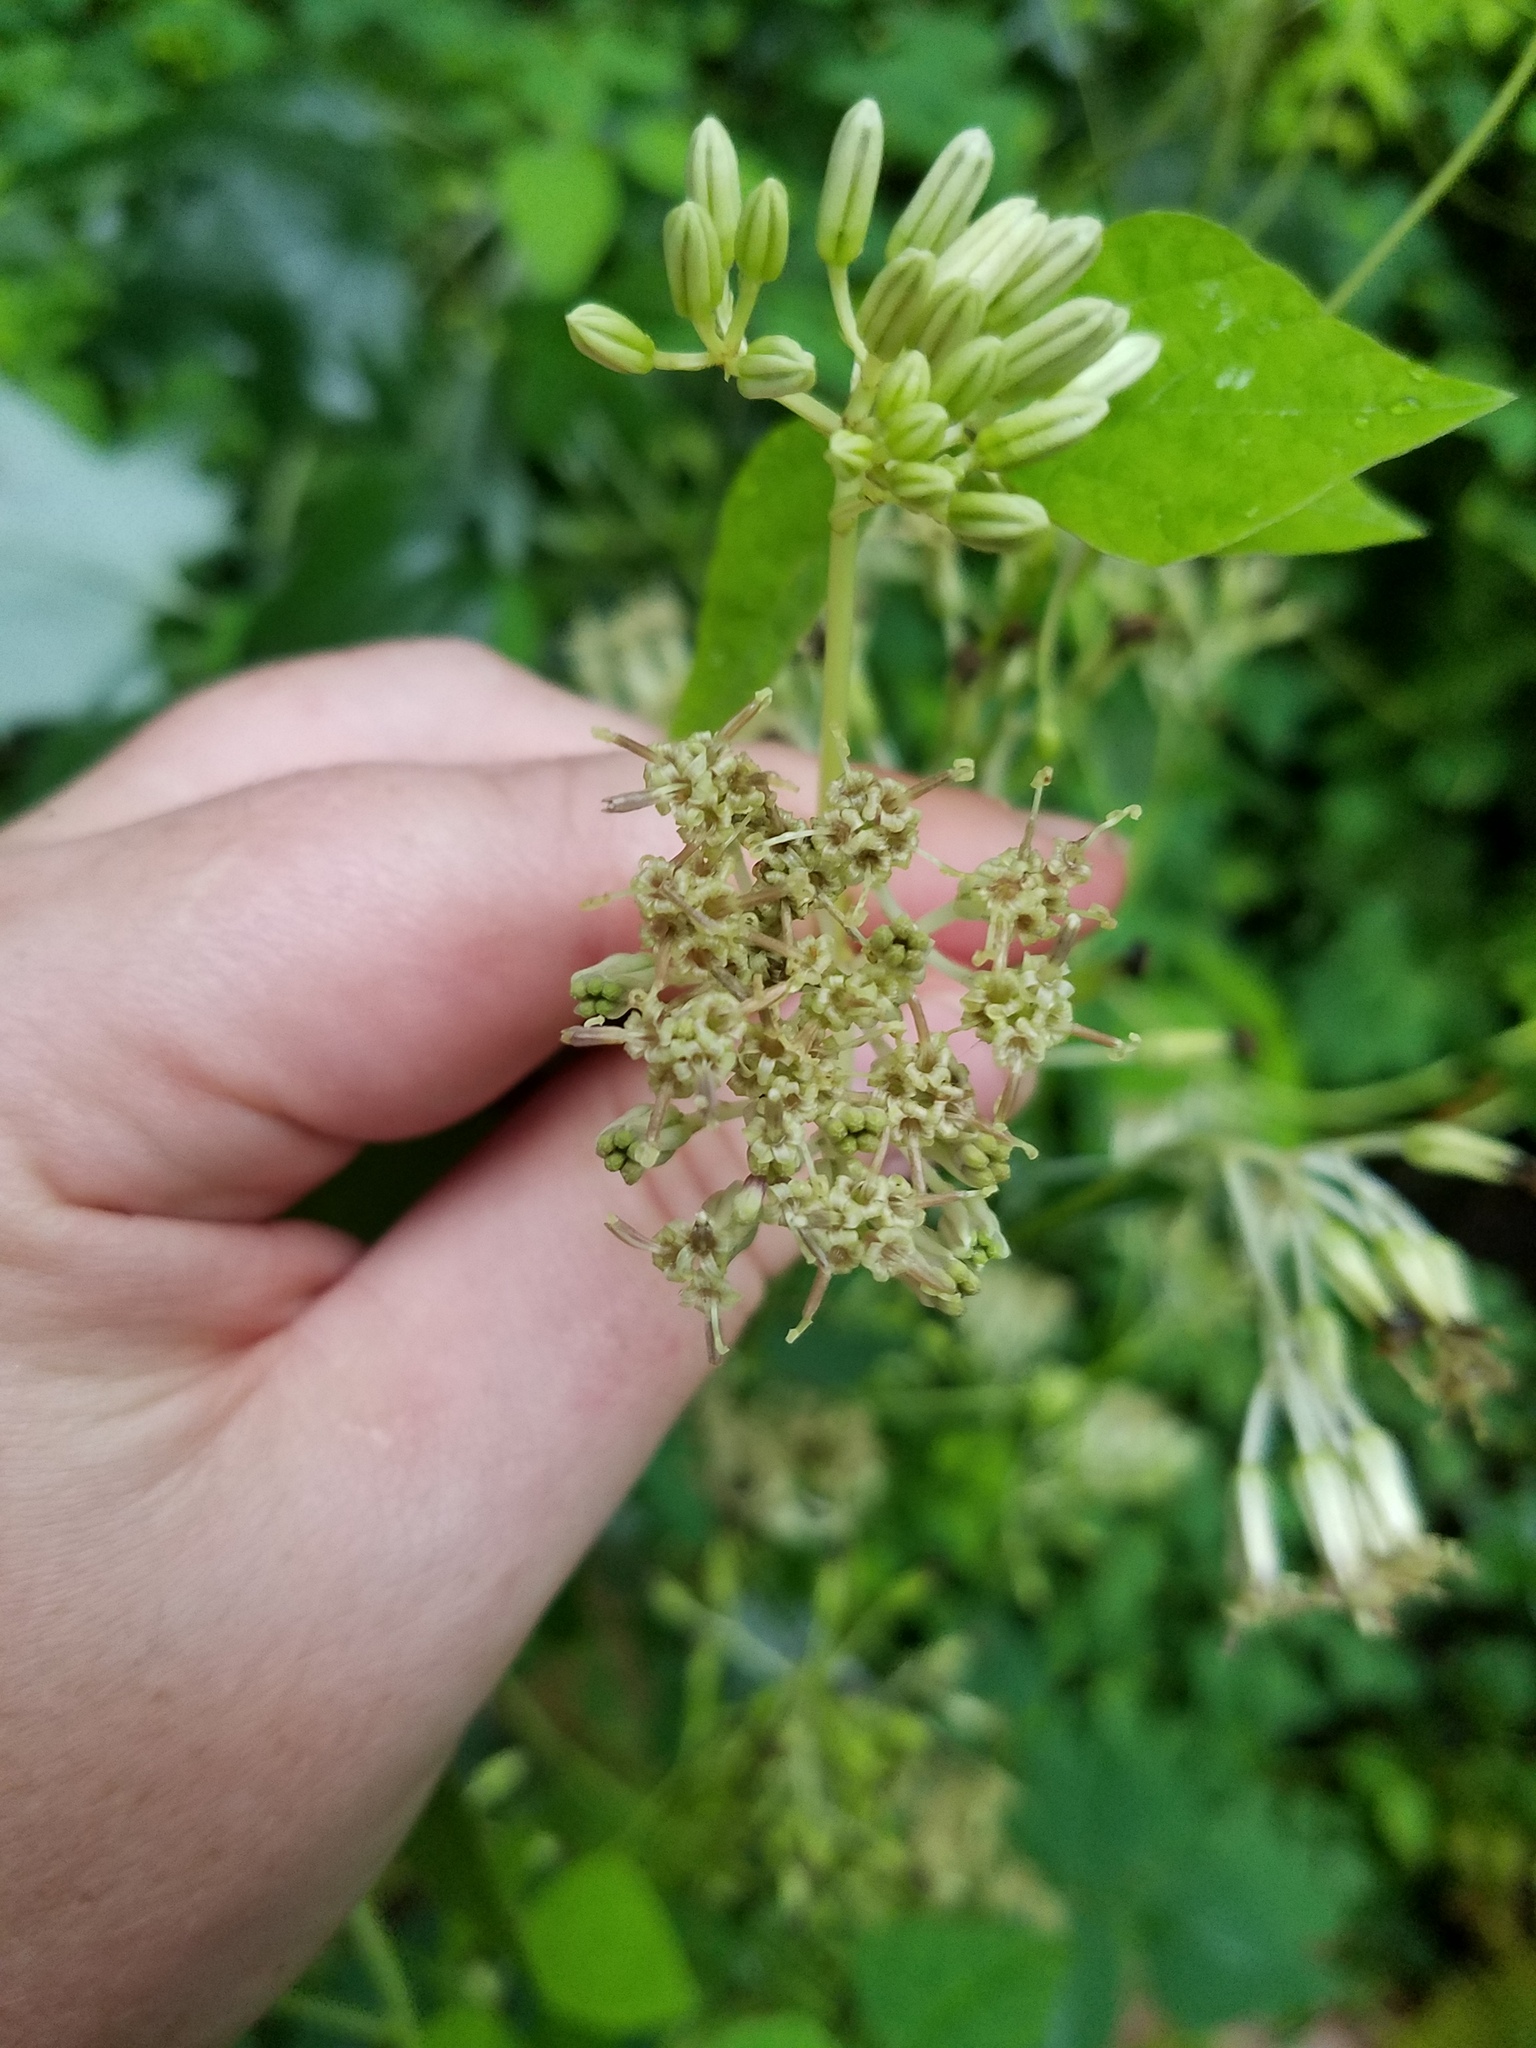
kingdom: Plantae
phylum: Tracheophyta
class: Magnoliopsida
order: Asterales
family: Asteraceae
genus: Arnoglossum
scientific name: Arnoglossum atriplicifolium
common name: Pale indian-plantain
